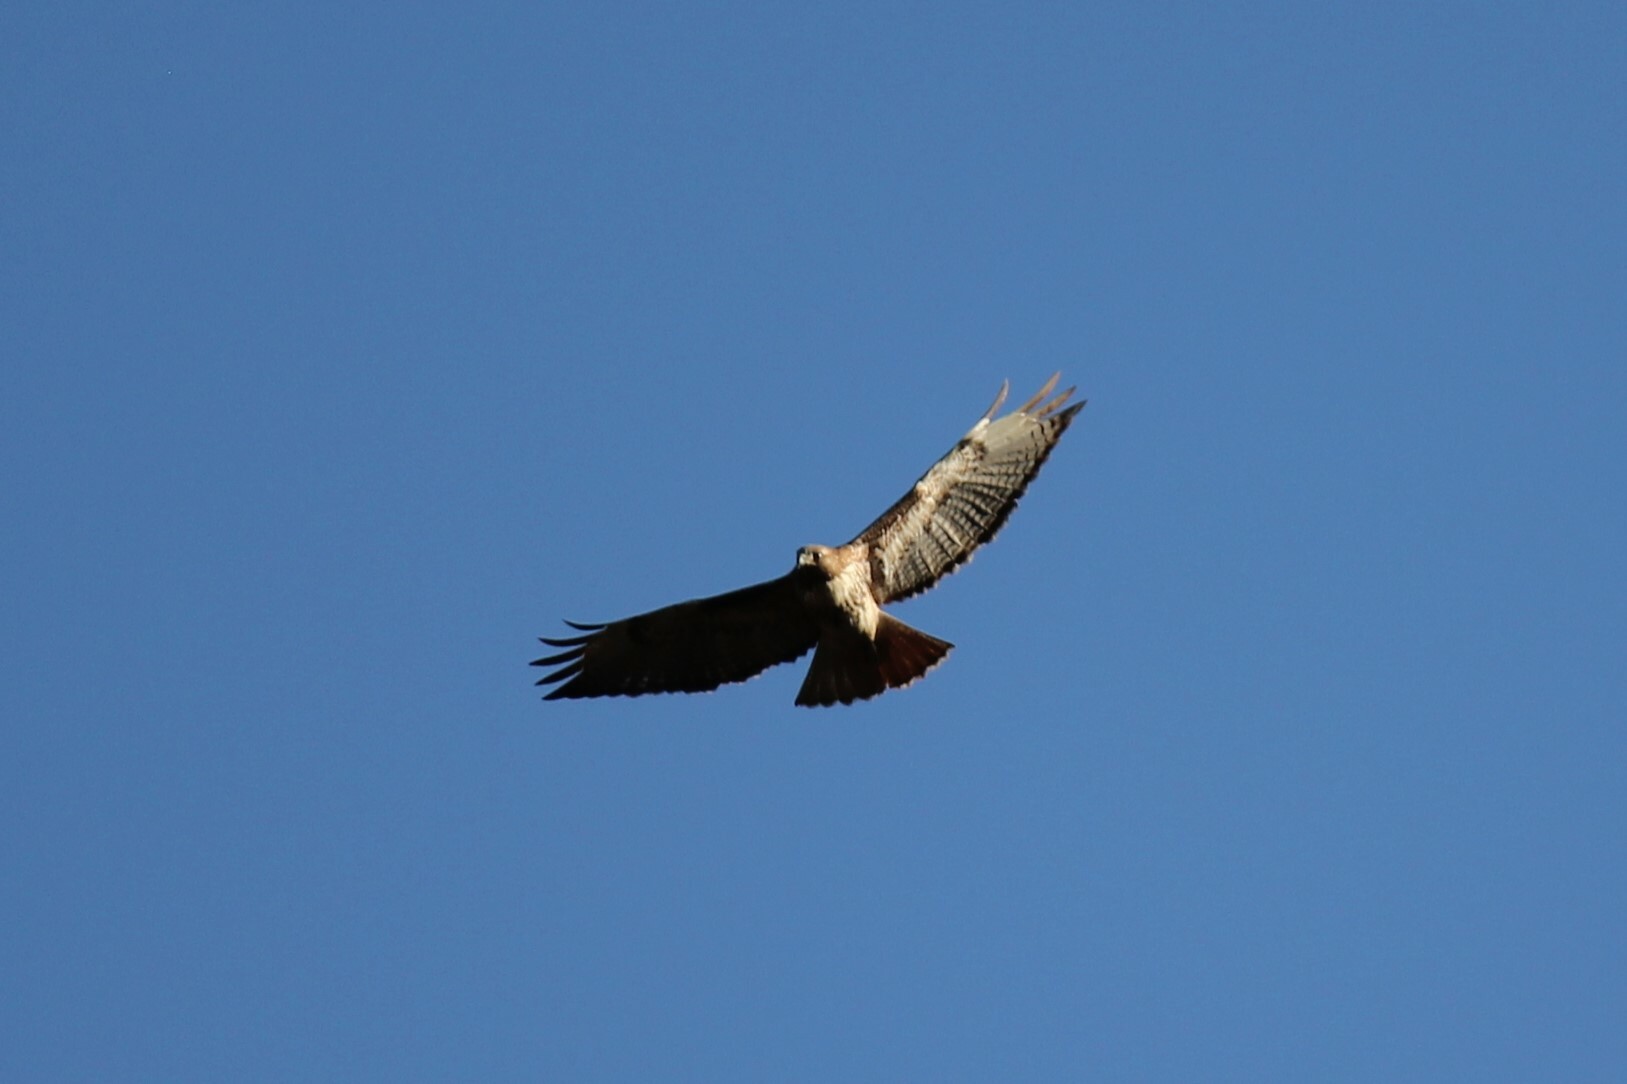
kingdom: Animalia
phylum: Chordata
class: Aves
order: Accipitriformes
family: Accipitridae
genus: Buteo
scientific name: Buteo jamaicensis
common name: Red-tailed hawk
